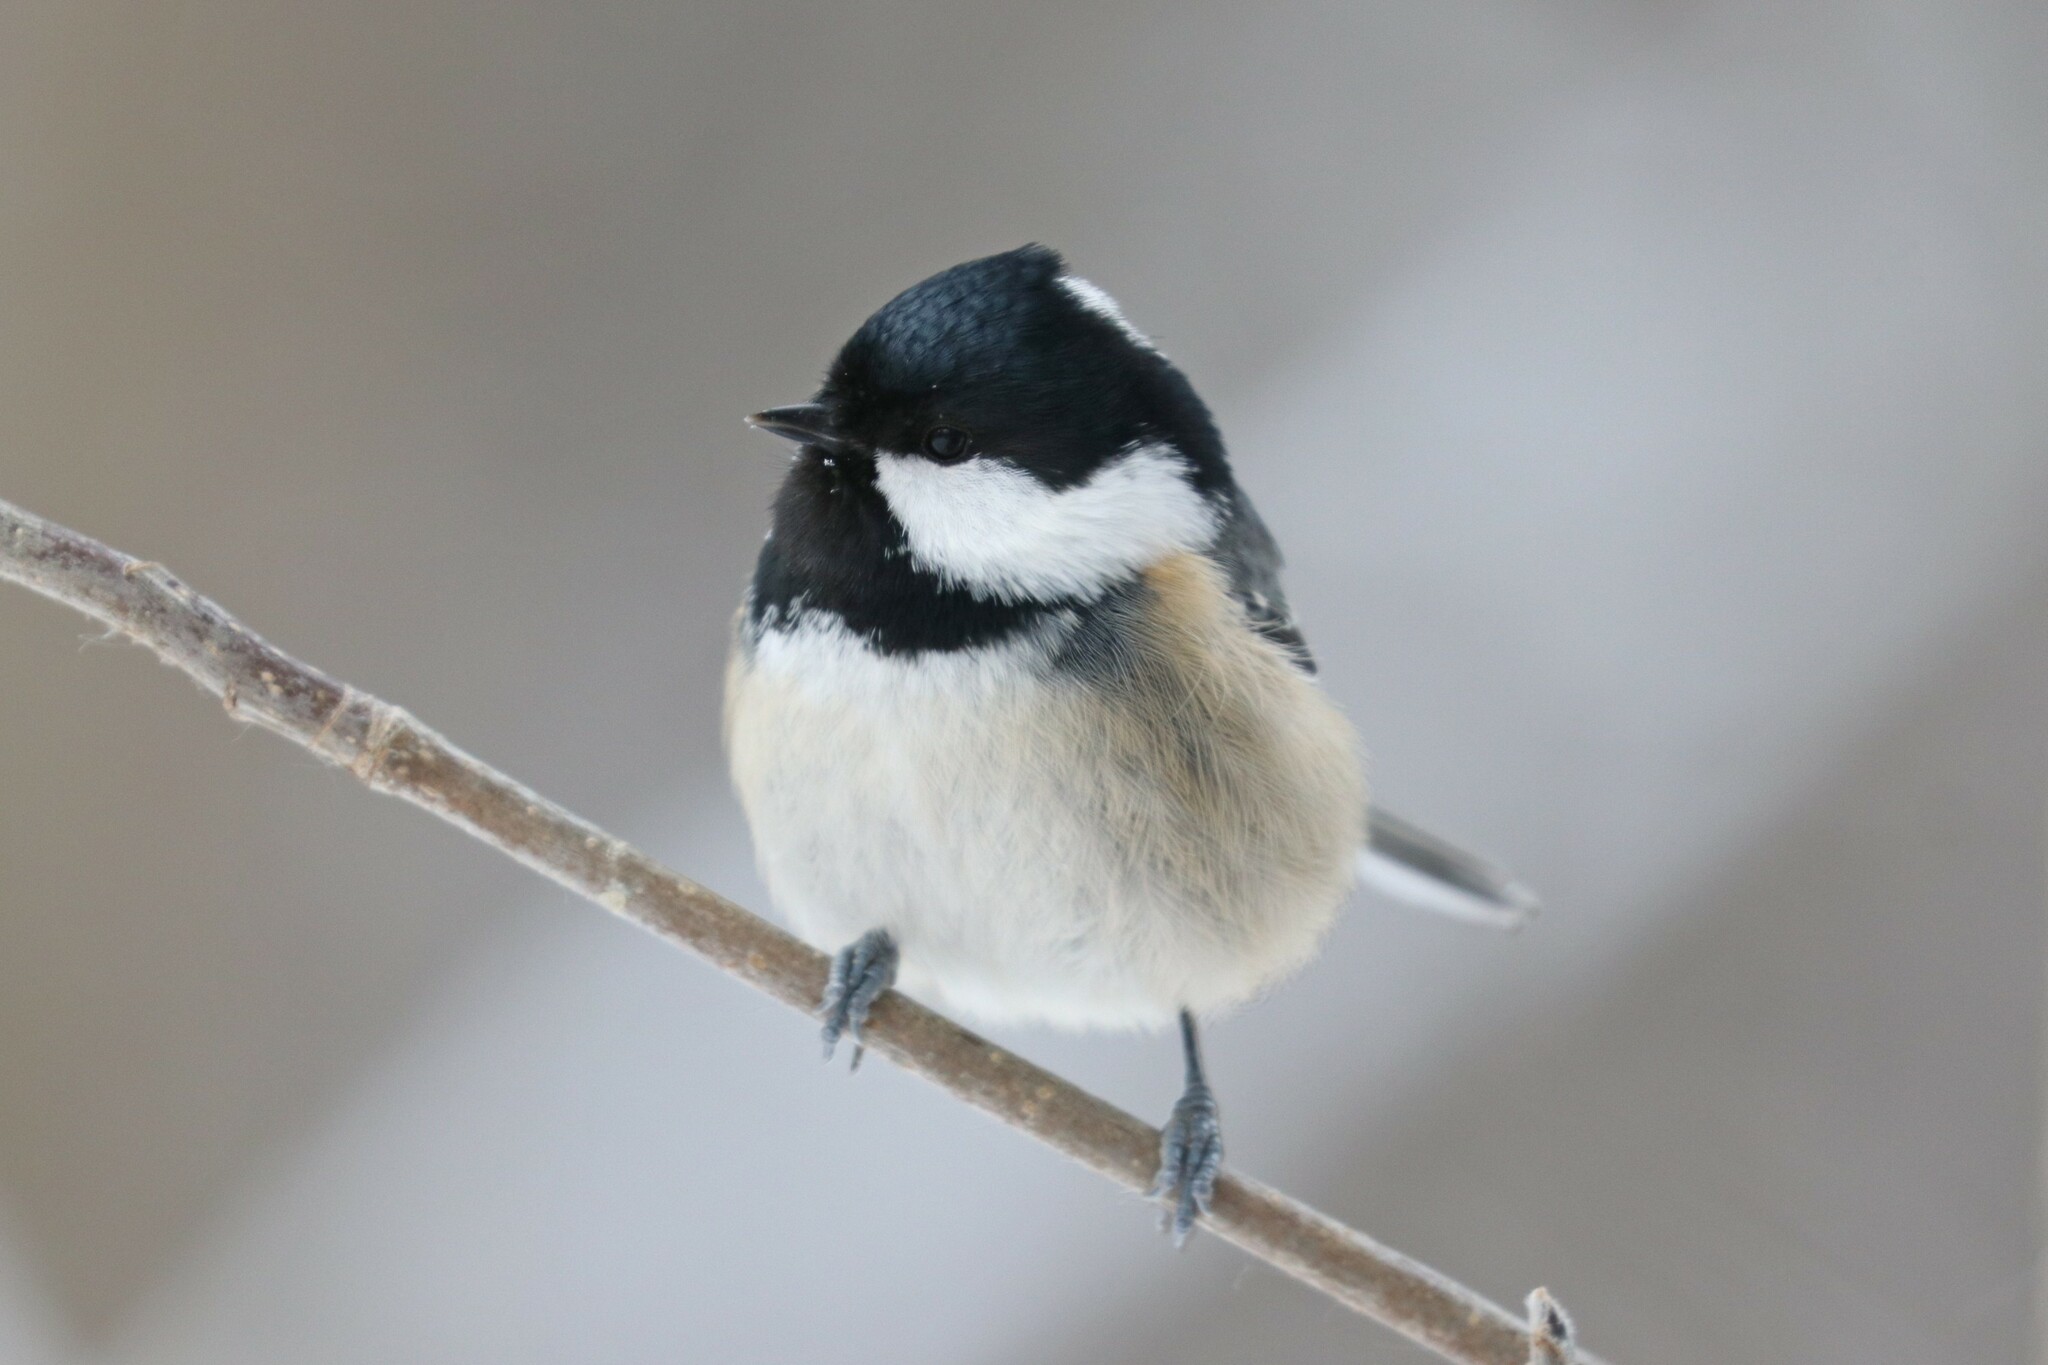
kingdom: Animalia
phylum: Chordata
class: Aves
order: Passeriformes
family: Paridae
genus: Periparus
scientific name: Periparus ater
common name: Coal tit
